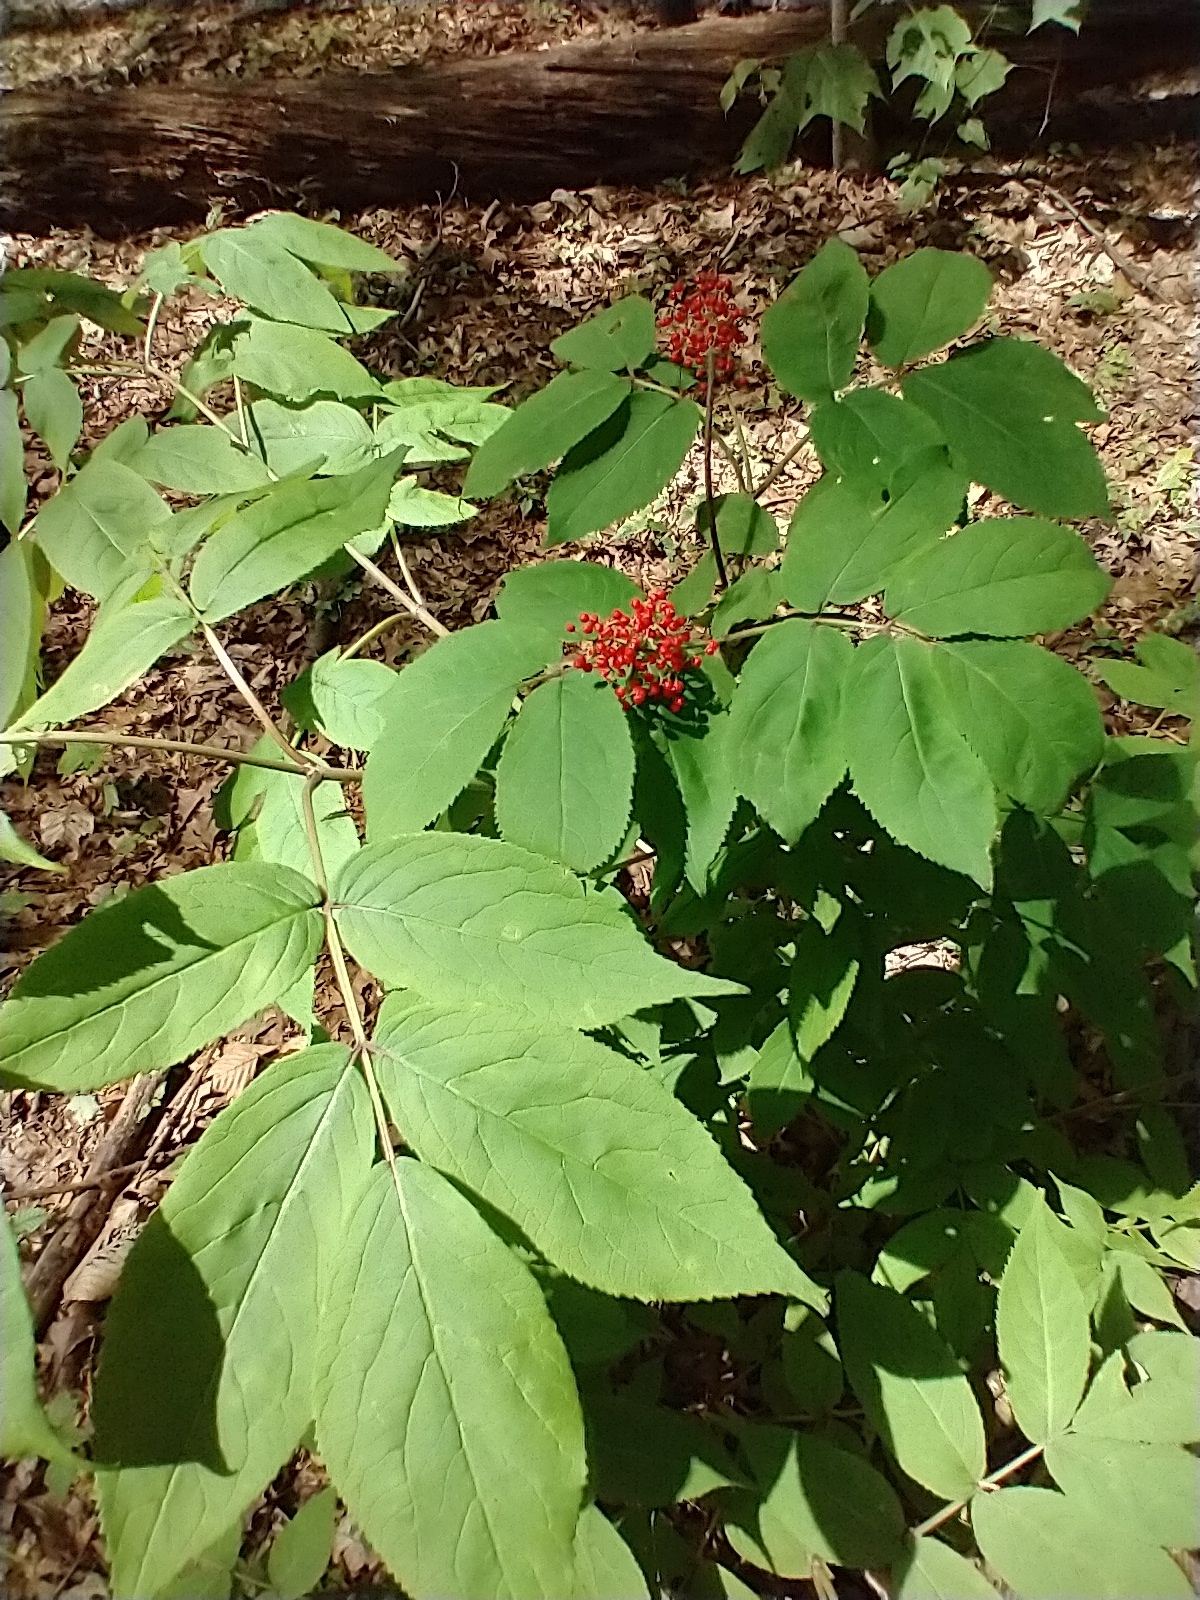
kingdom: Plantae
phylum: Tracheophyta
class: Magnoliopsida
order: Dipsacales
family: Viburnaceae
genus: Sambucus
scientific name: Sambucus racemosa
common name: Red-berried elder
